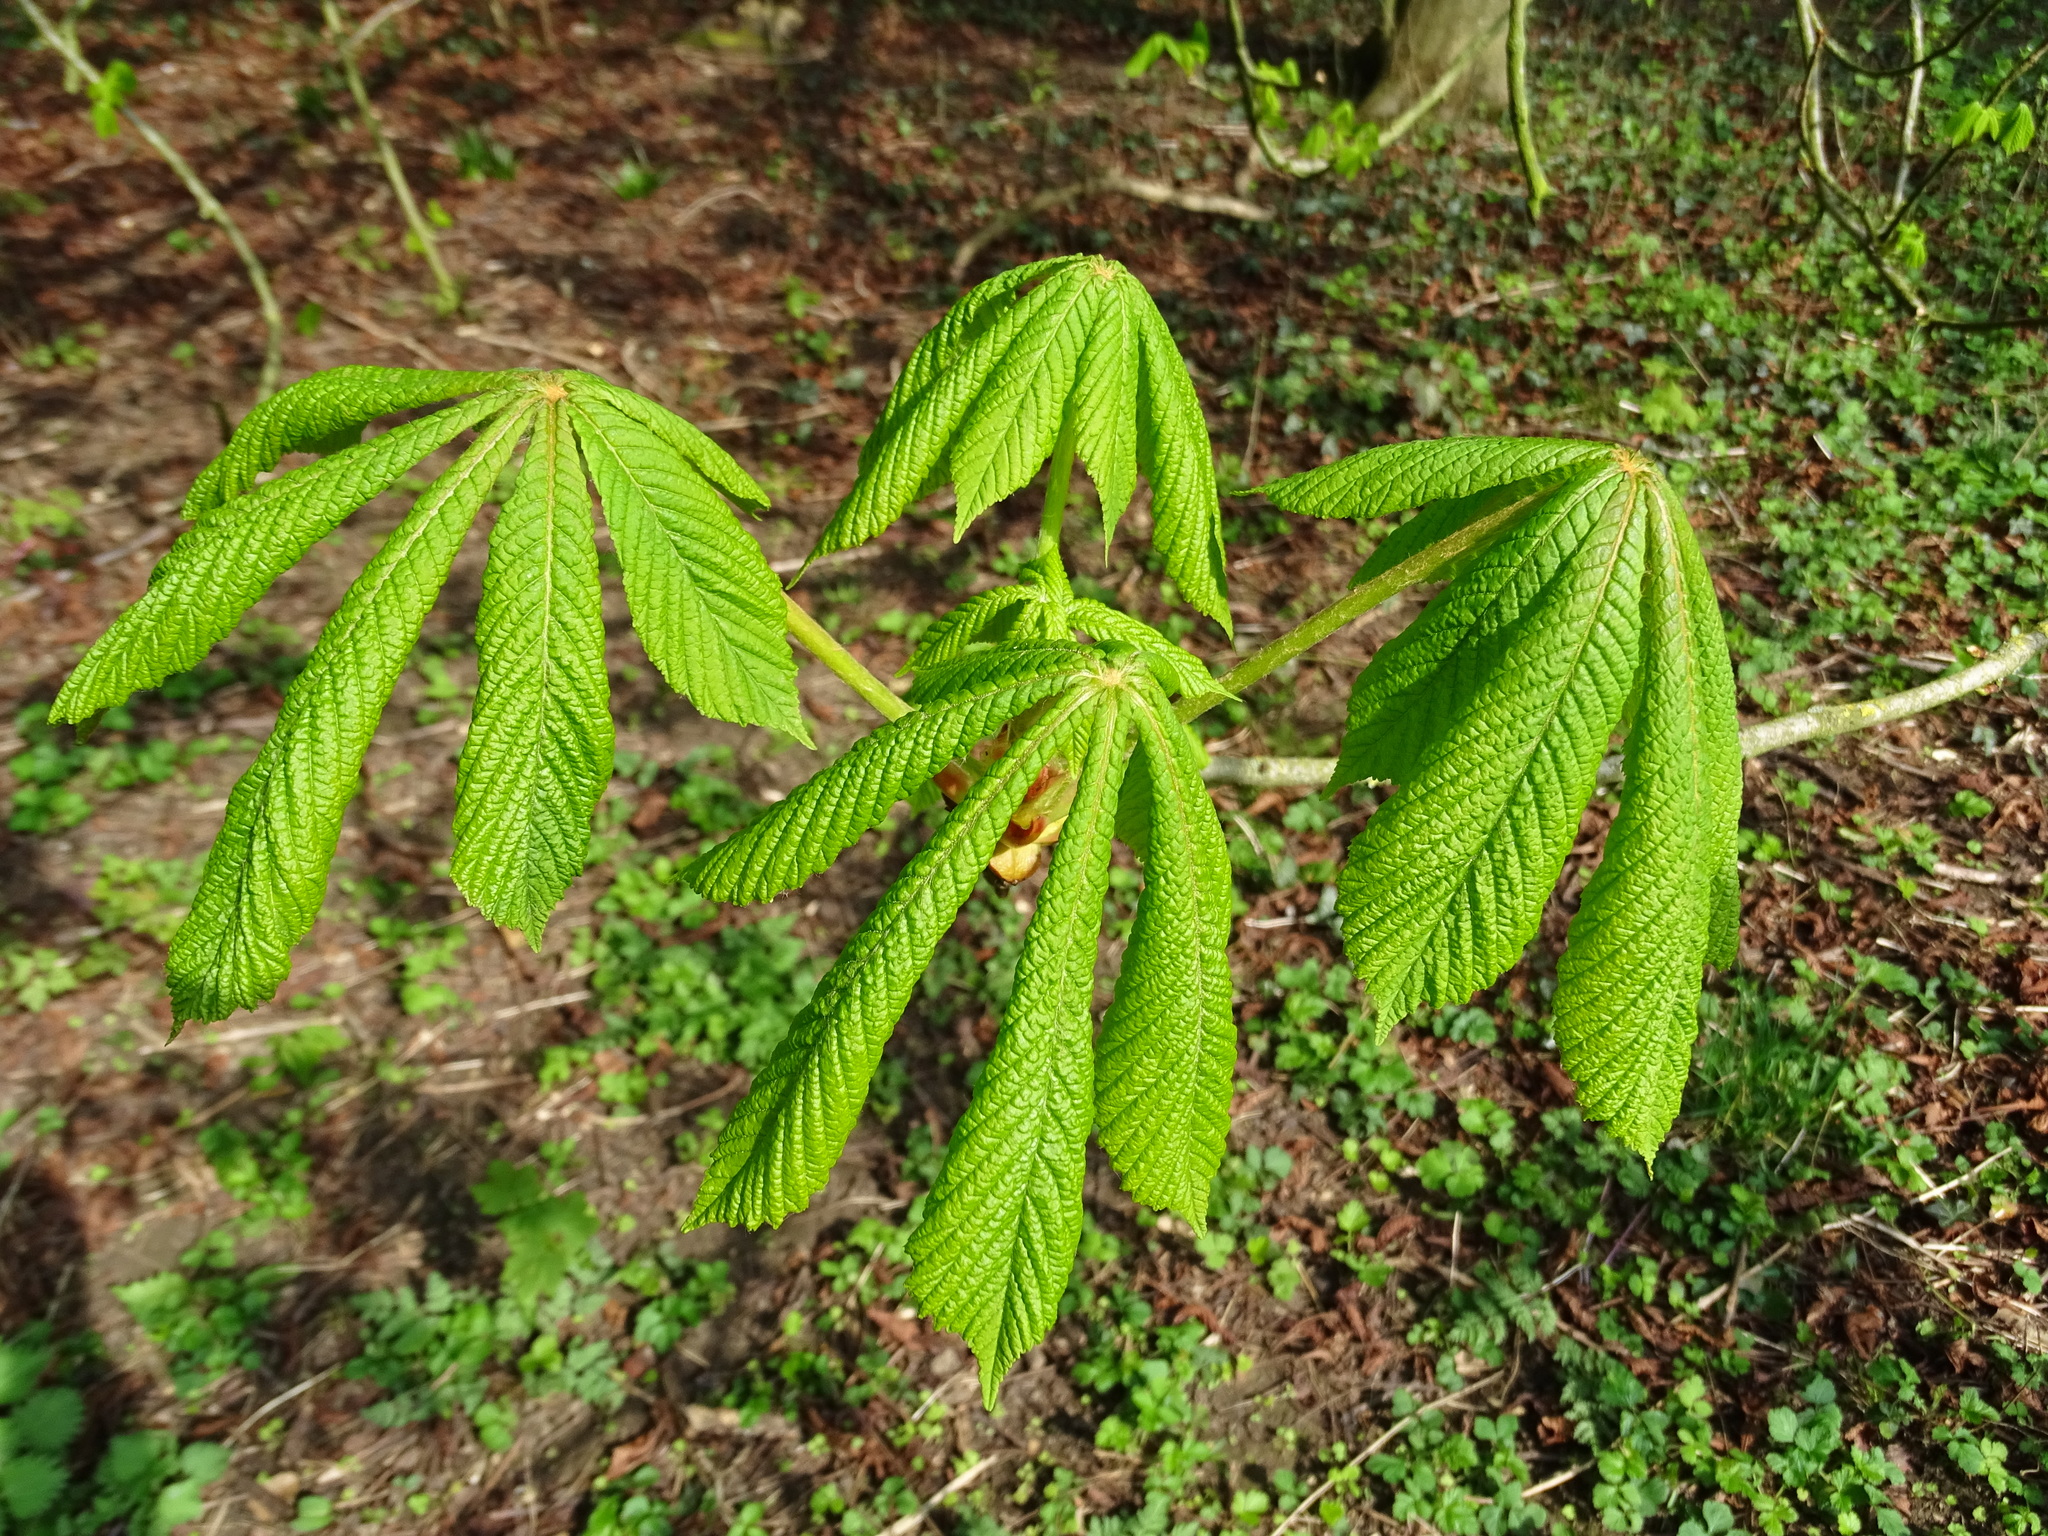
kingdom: Plantae
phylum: Tracheophyta
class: Magnoliopsida
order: Sapindales
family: Sapindaceae
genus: Aesculus
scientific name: Aesculus hippocastanum
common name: Horse-chestnut
